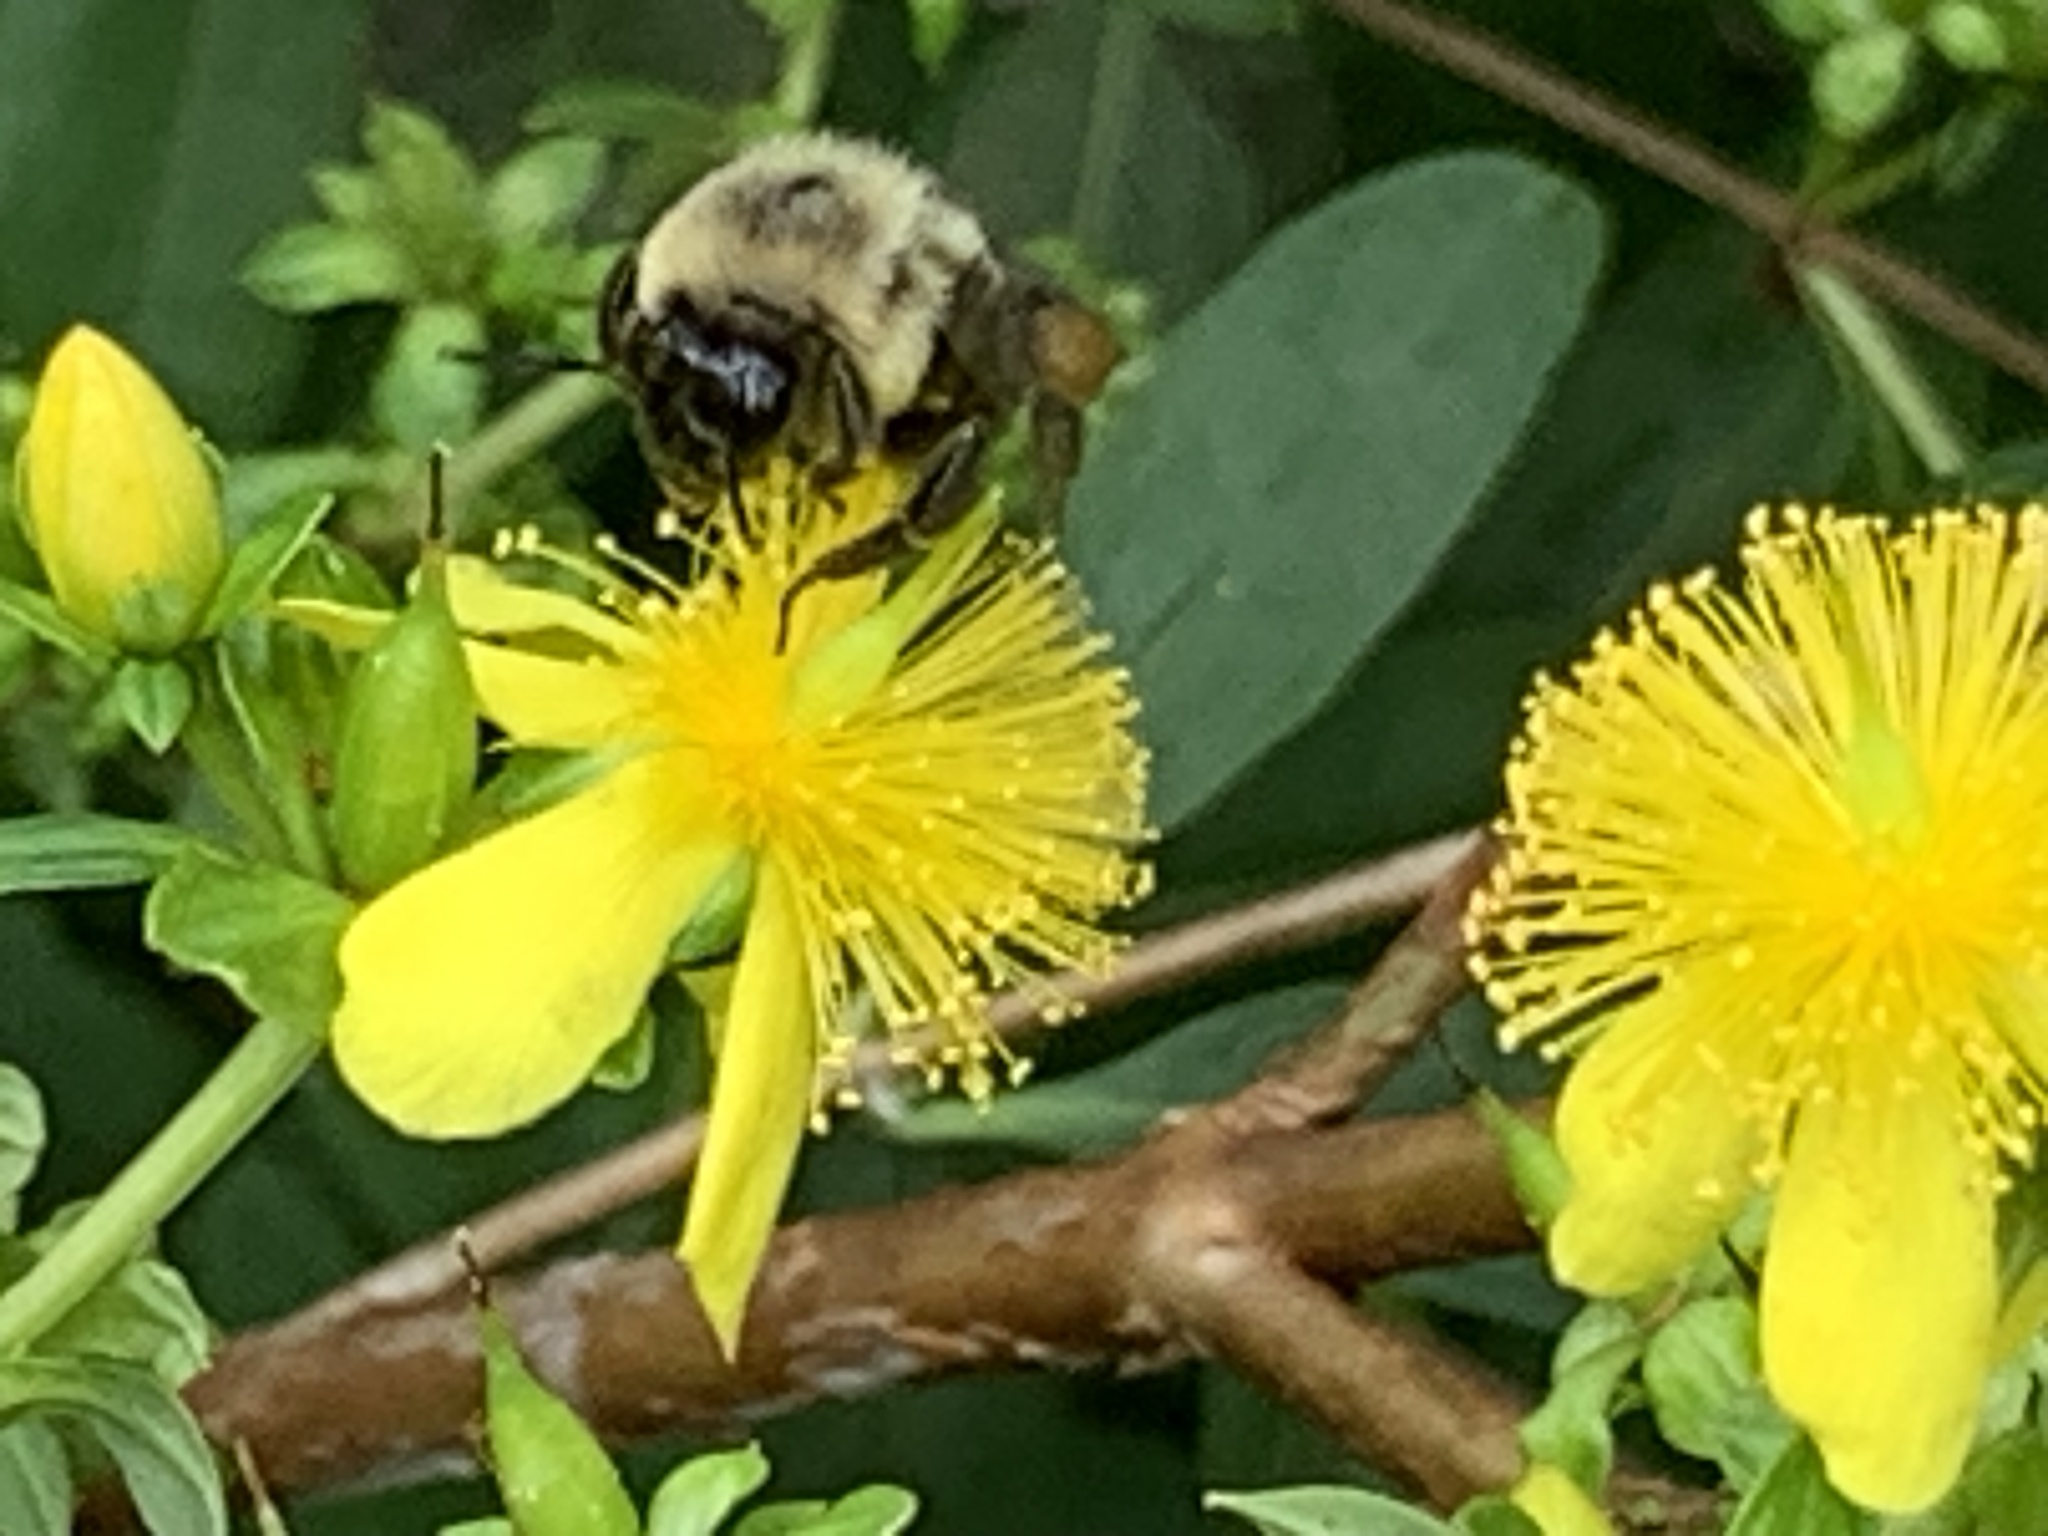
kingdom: Animalia
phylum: Arthropoda
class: Insecta
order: Hymenoptera
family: Apidae
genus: Bombus
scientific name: Bombus impatiens
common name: Common eastern bumble bee
